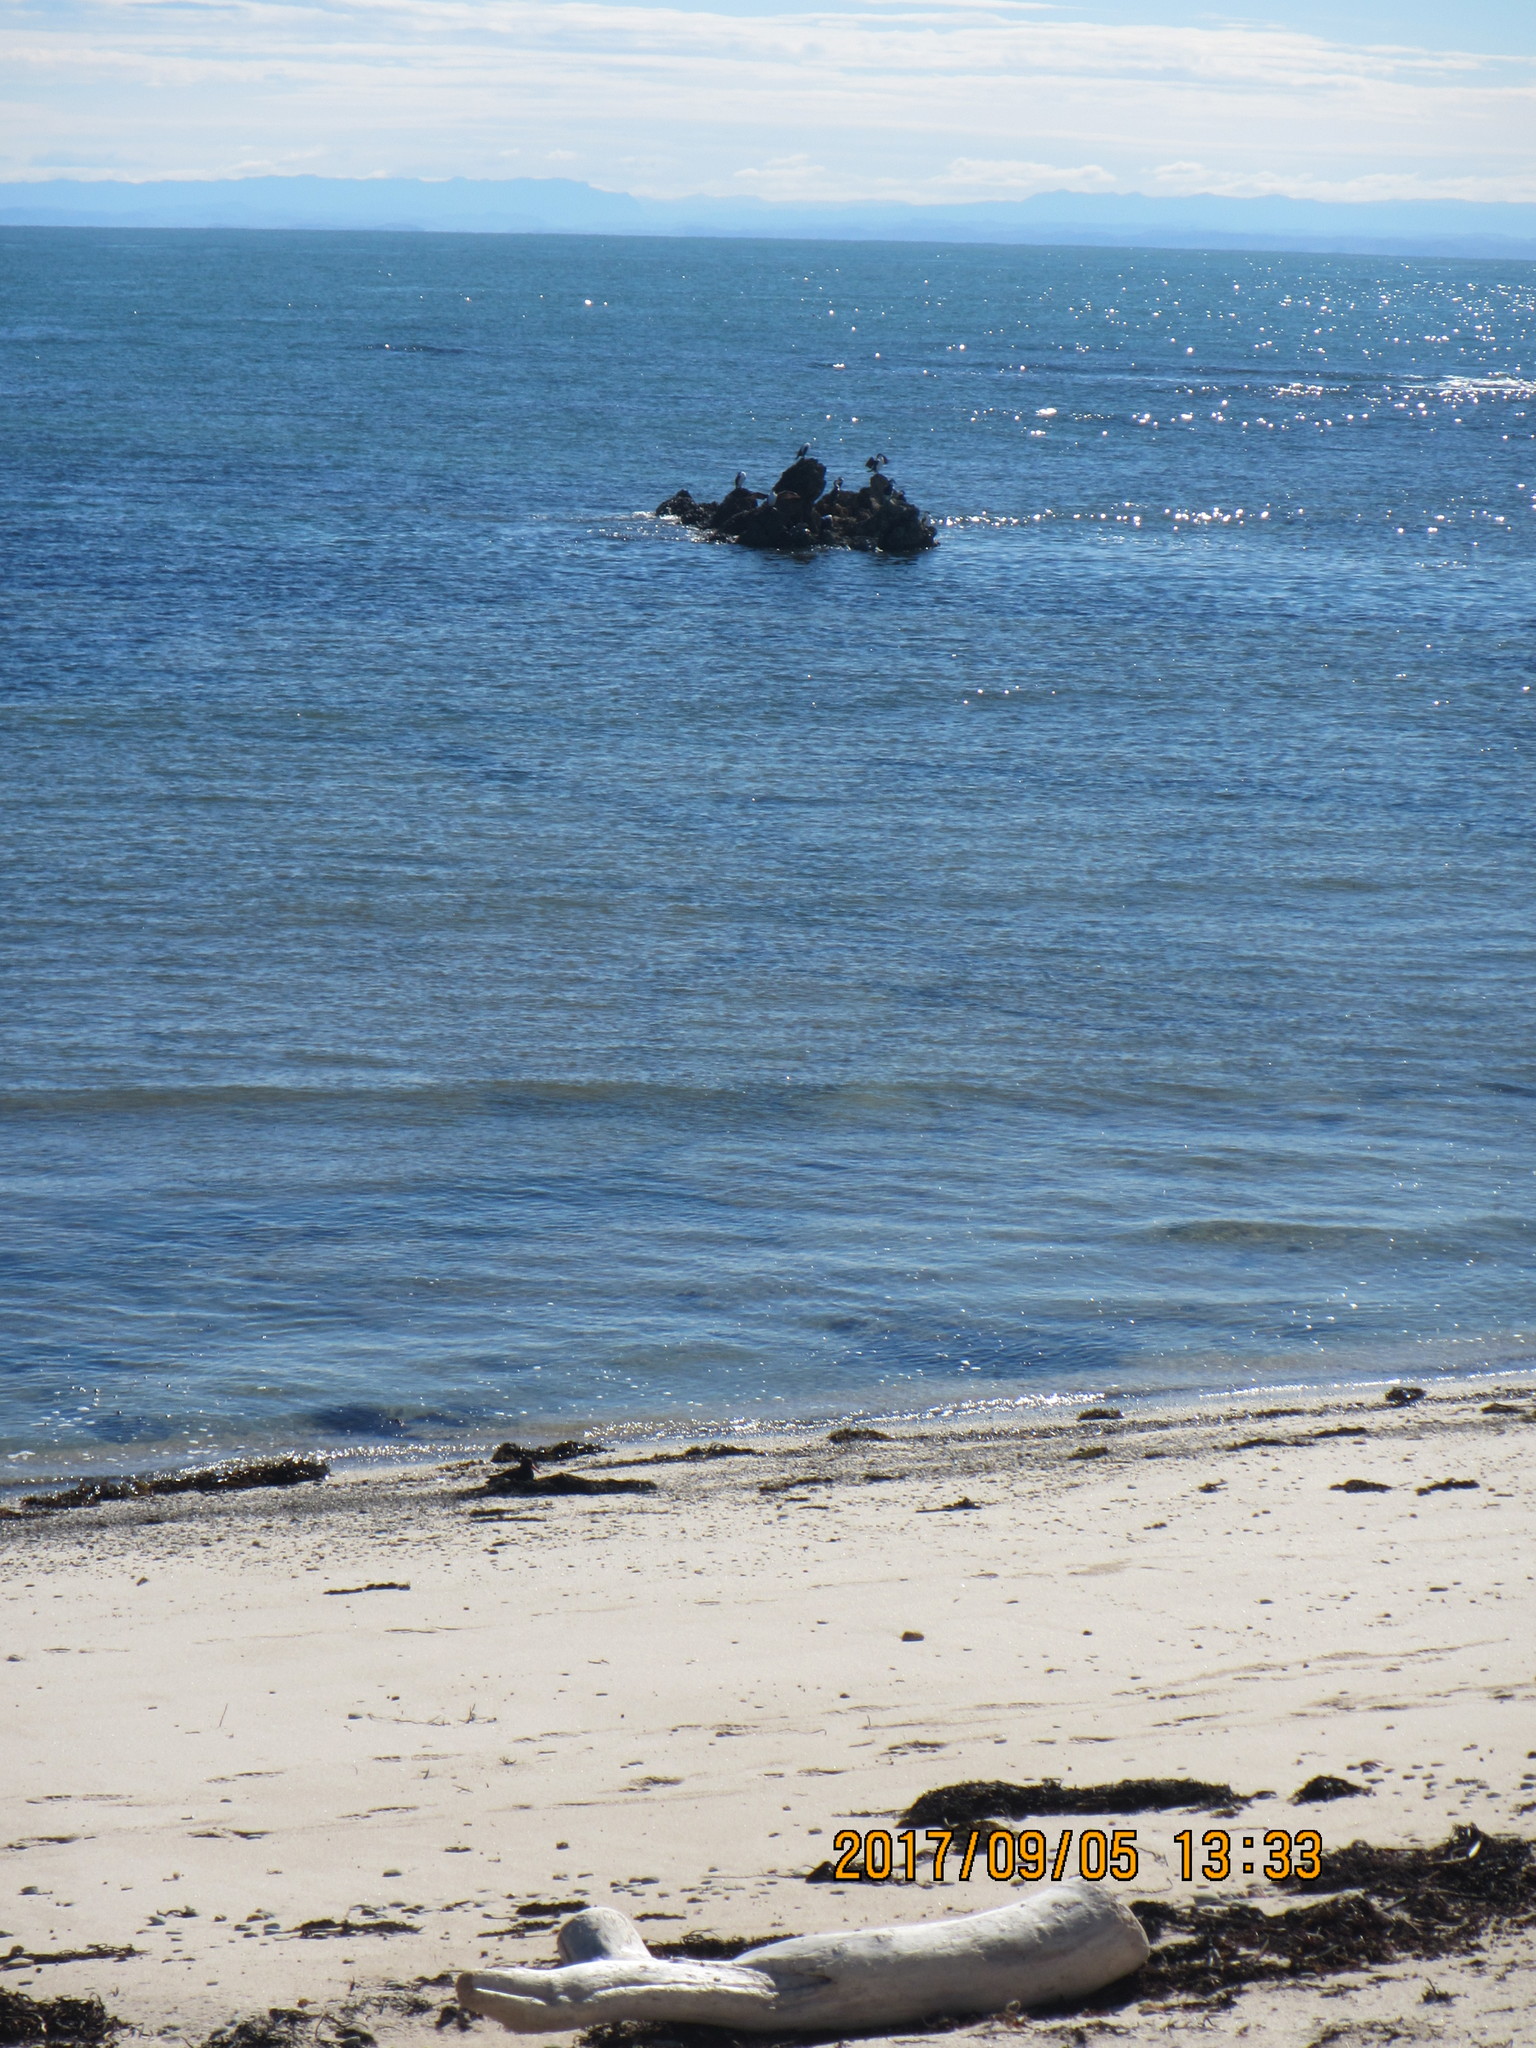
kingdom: Animalia
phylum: Chordata
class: Aves
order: Suliformes
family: Phalacrocoracidae
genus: Phalacrocorax
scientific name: Phalacrocorax varius
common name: Pied cormorant
